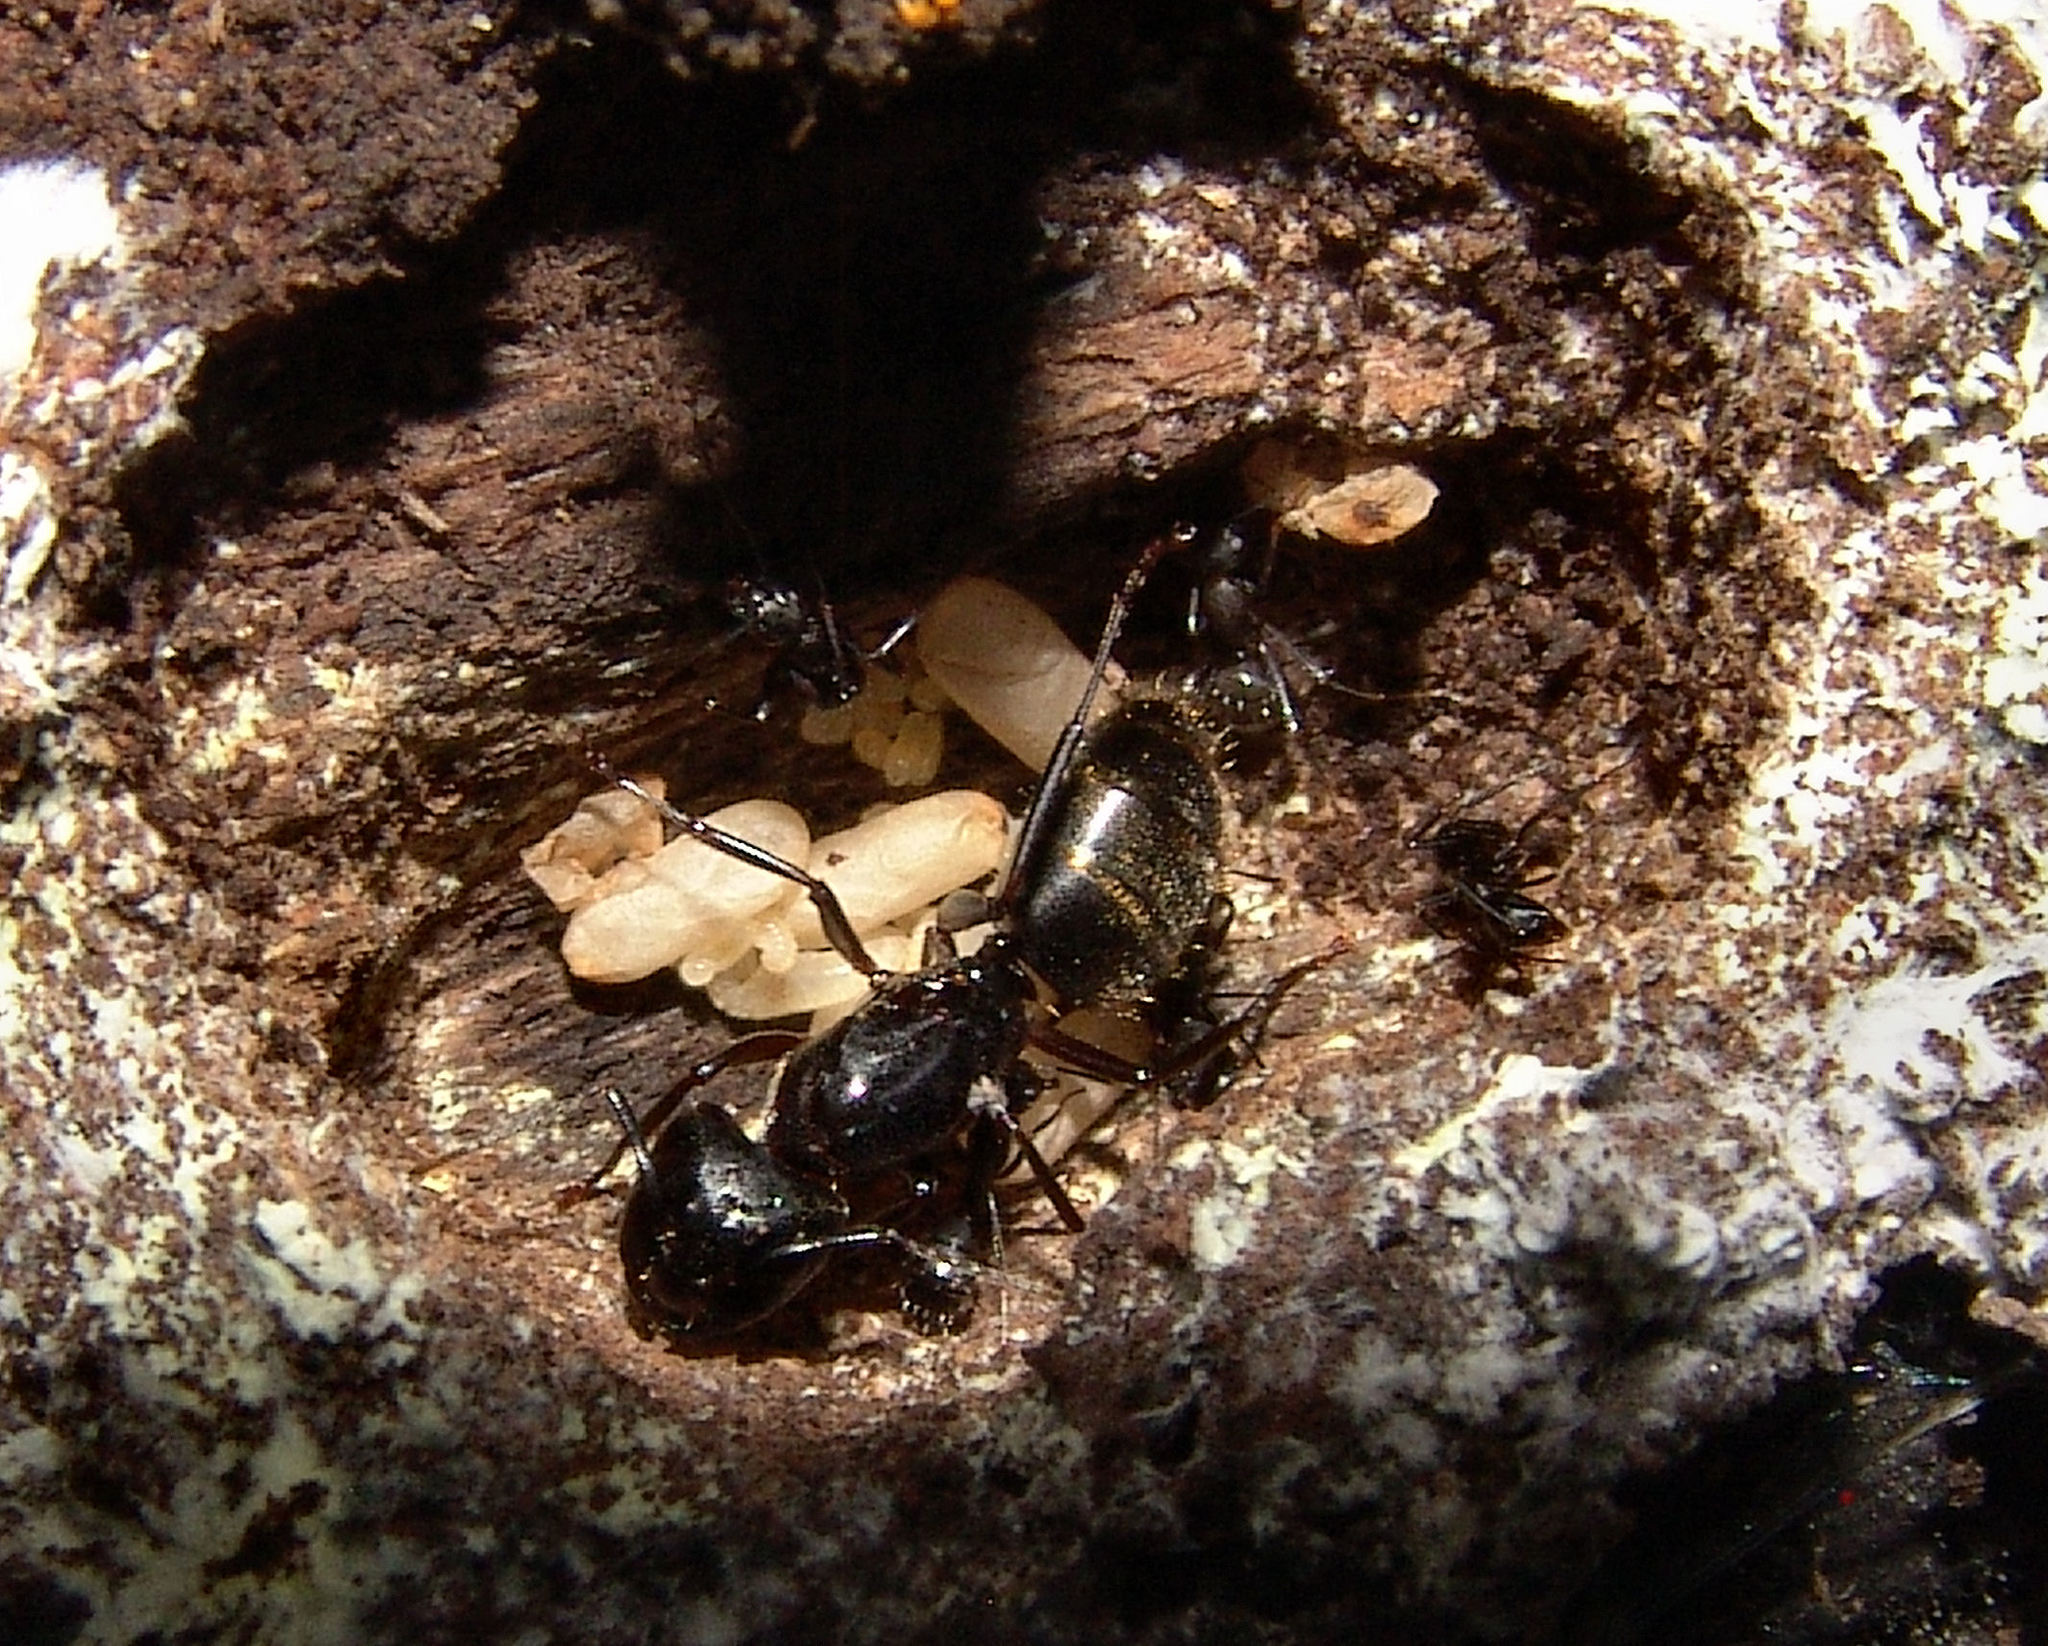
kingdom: Animalia
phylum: Arthropoda
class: Insecta
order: Hymenoptera
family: Formicidae
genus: Camponotus
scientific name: Camponotus pennsylvanicus
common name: Black carpenter ant
